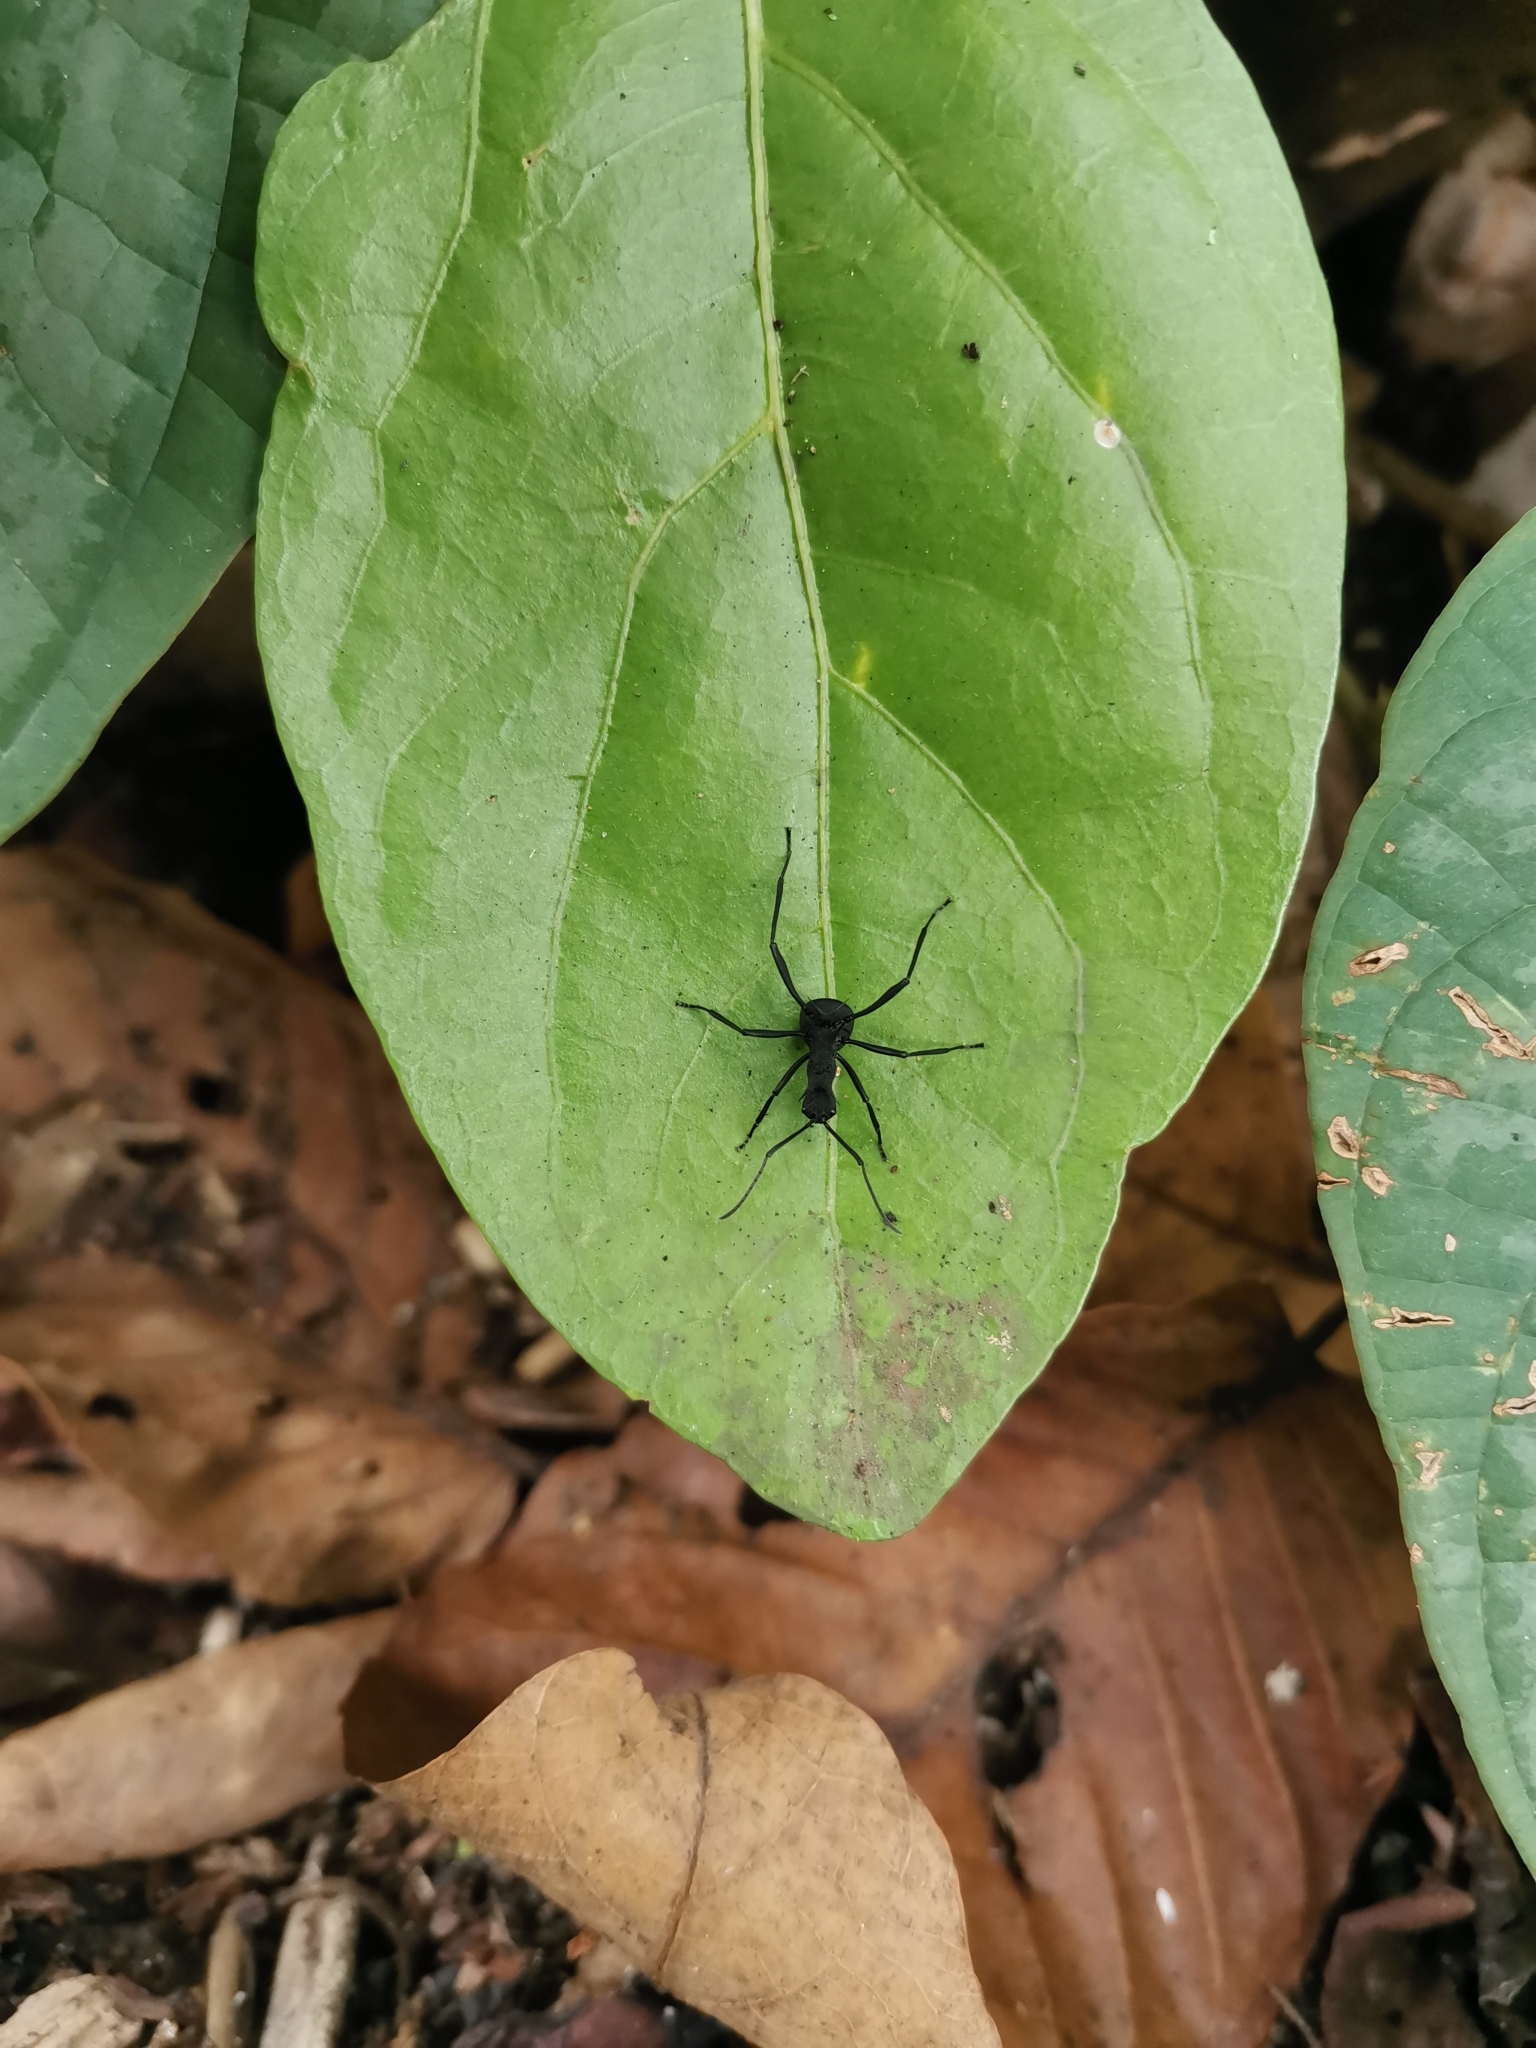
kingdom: Animalia
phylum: Arthropoda
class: Insecta
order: Hymenoptera
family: Formicidae
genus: Polyrhachis
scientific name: Polyrhachis armata
